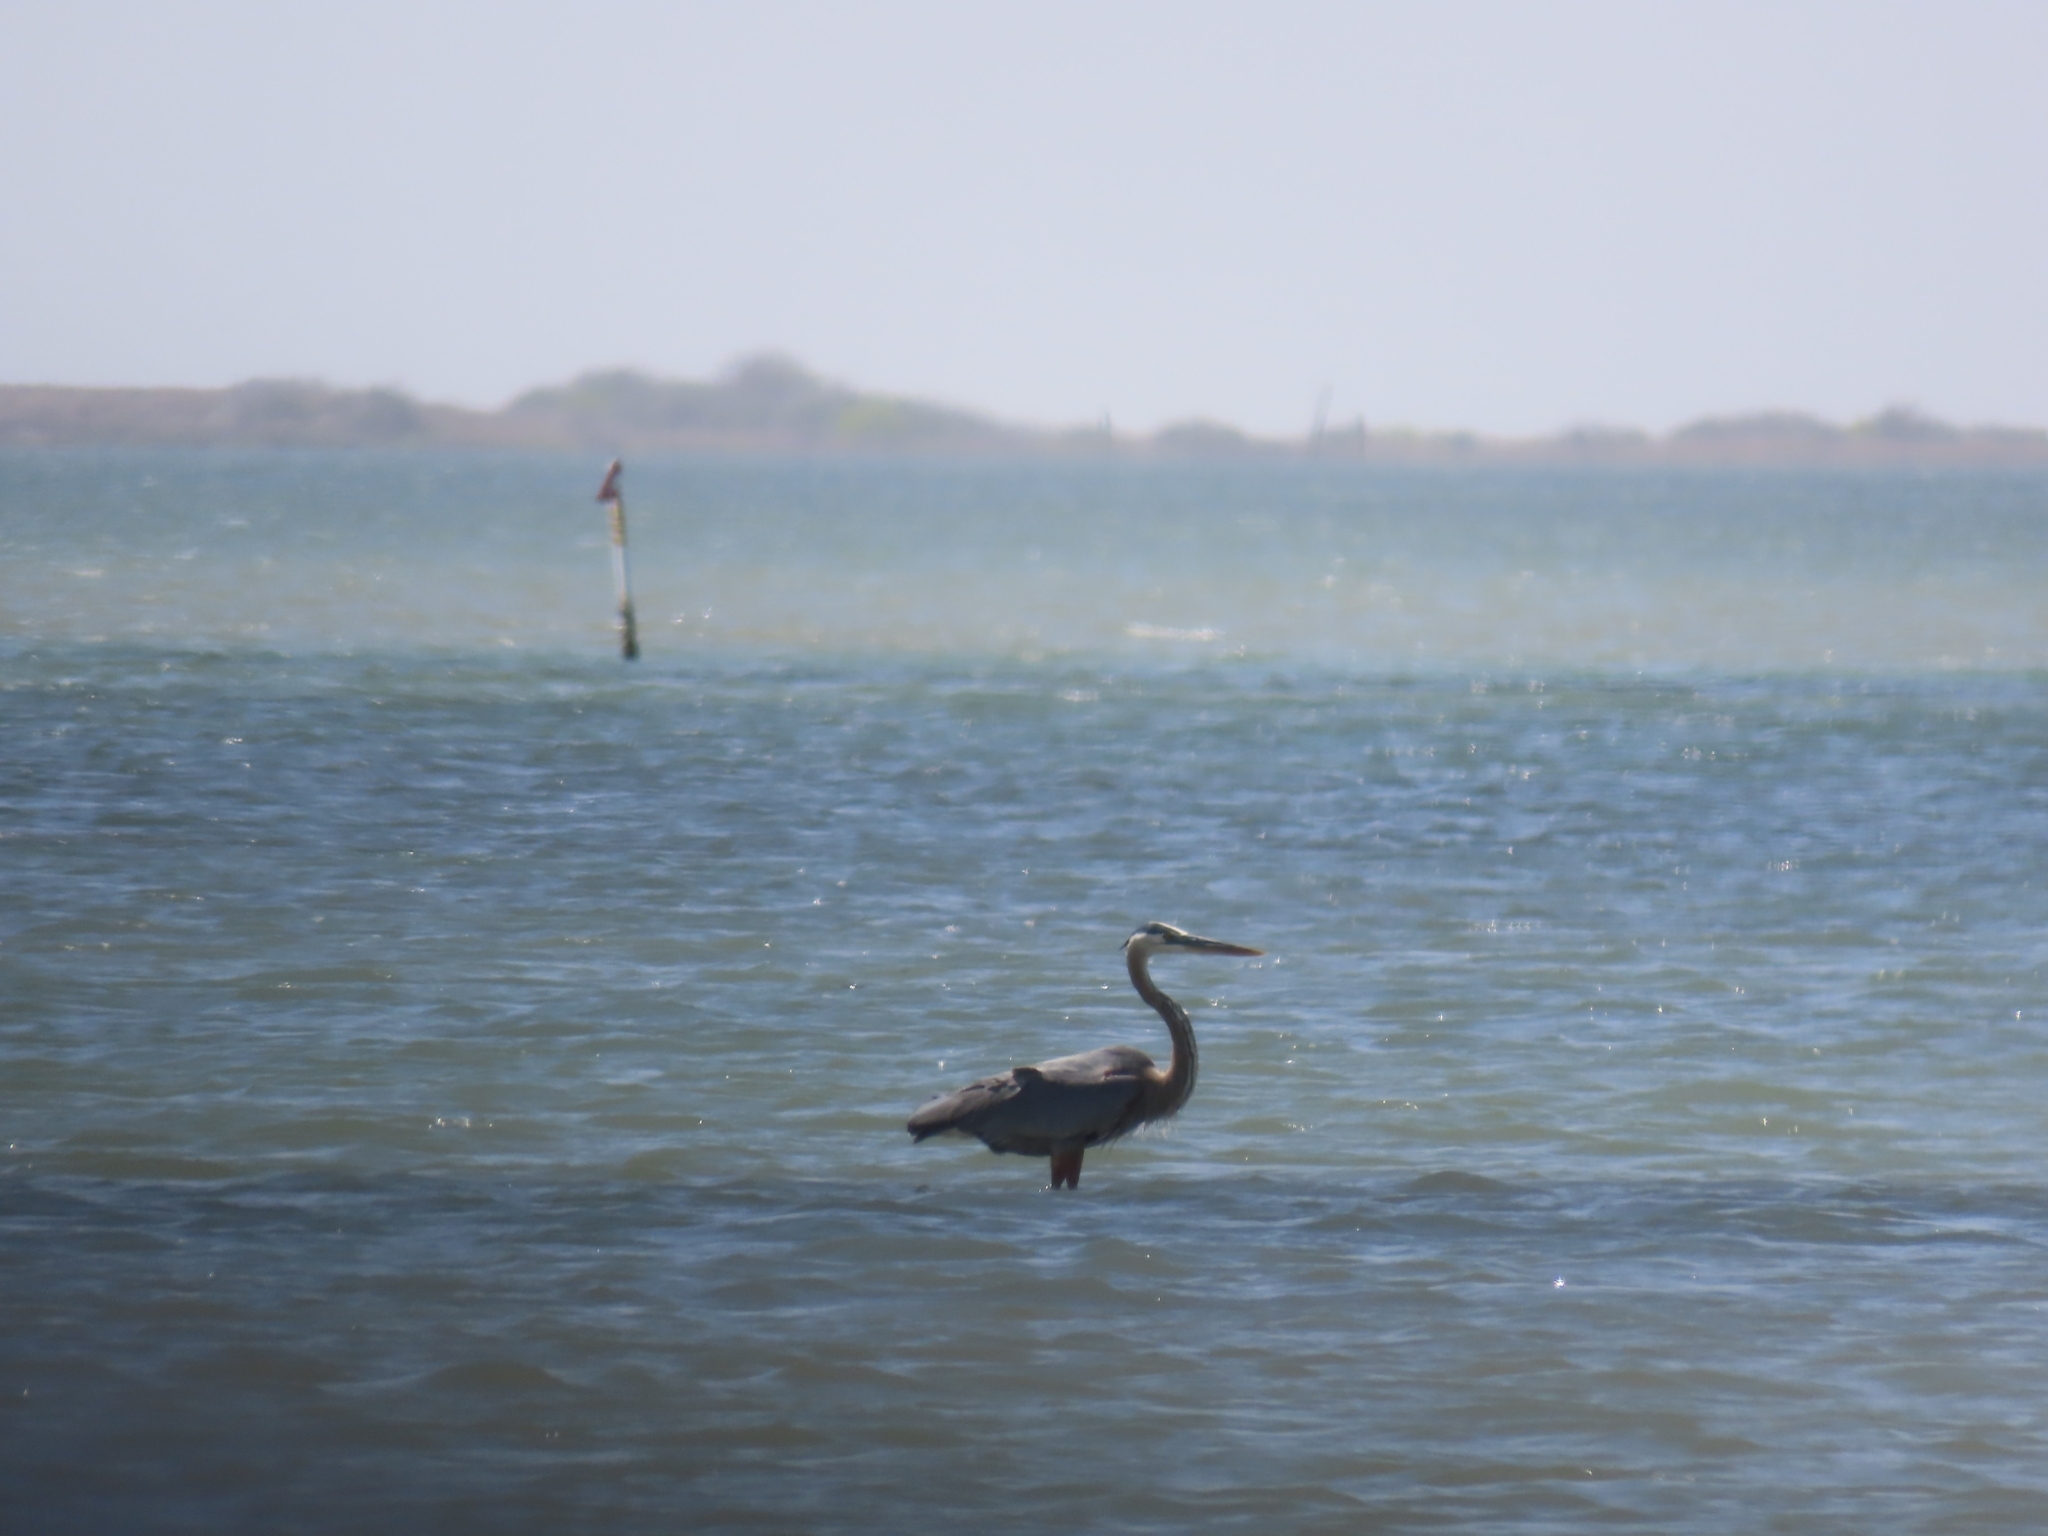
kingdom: Animalia
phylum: Chordata
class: Aves
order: Pelecaniformes
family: Ardeidae
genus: Ardea
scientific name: Ardea herodias
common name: Great blue heron
